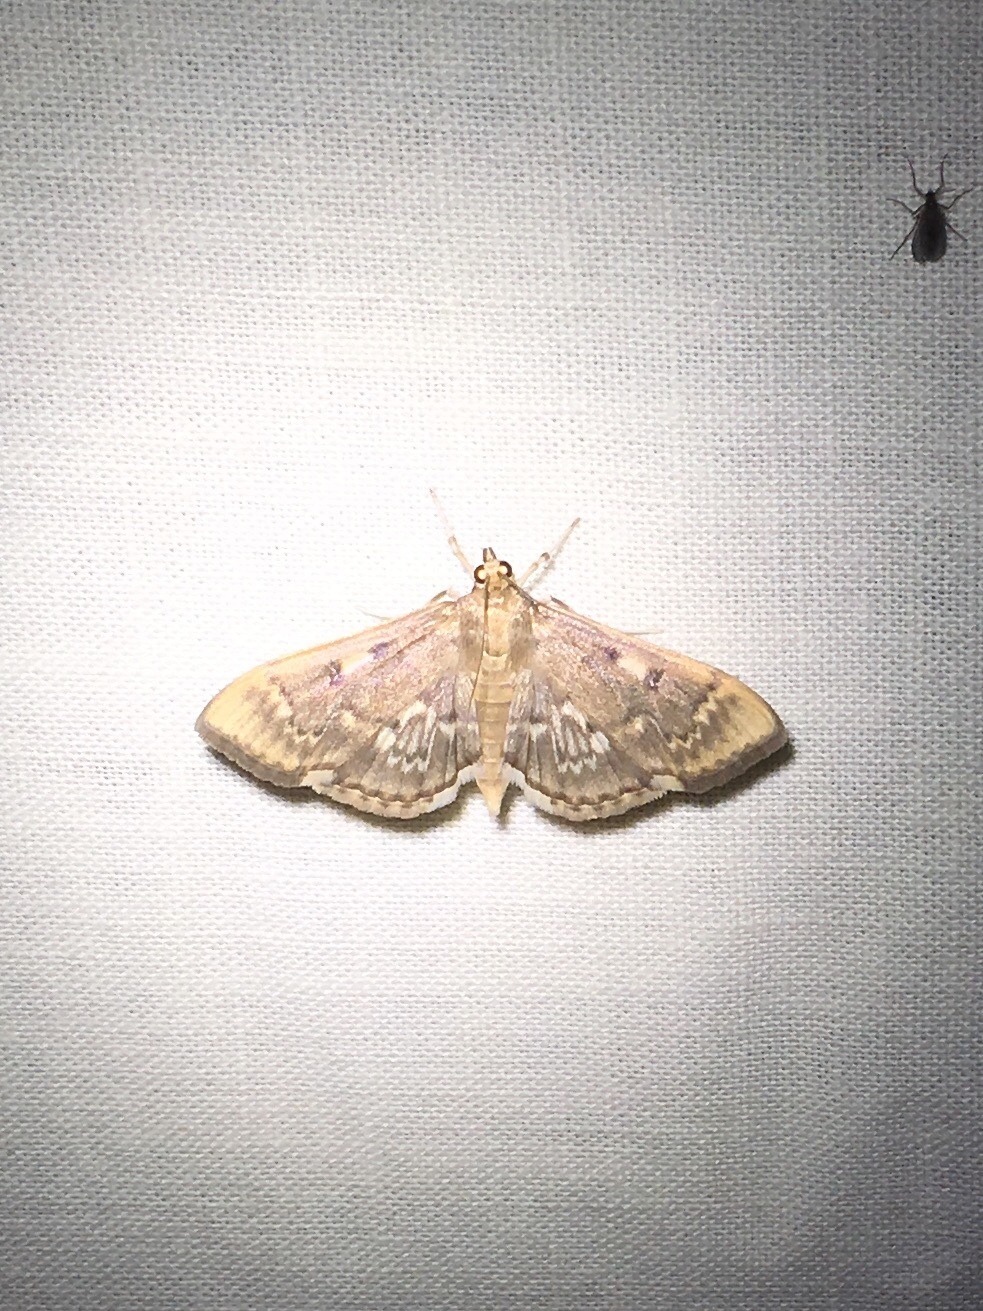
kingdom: Animalia
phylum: Arthropoda
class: Insecta
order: Lepidoptera
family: Crambidae
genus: Herpetogramma
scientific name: Herpetogramma aeglealis
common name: Serpentine webworm moth
